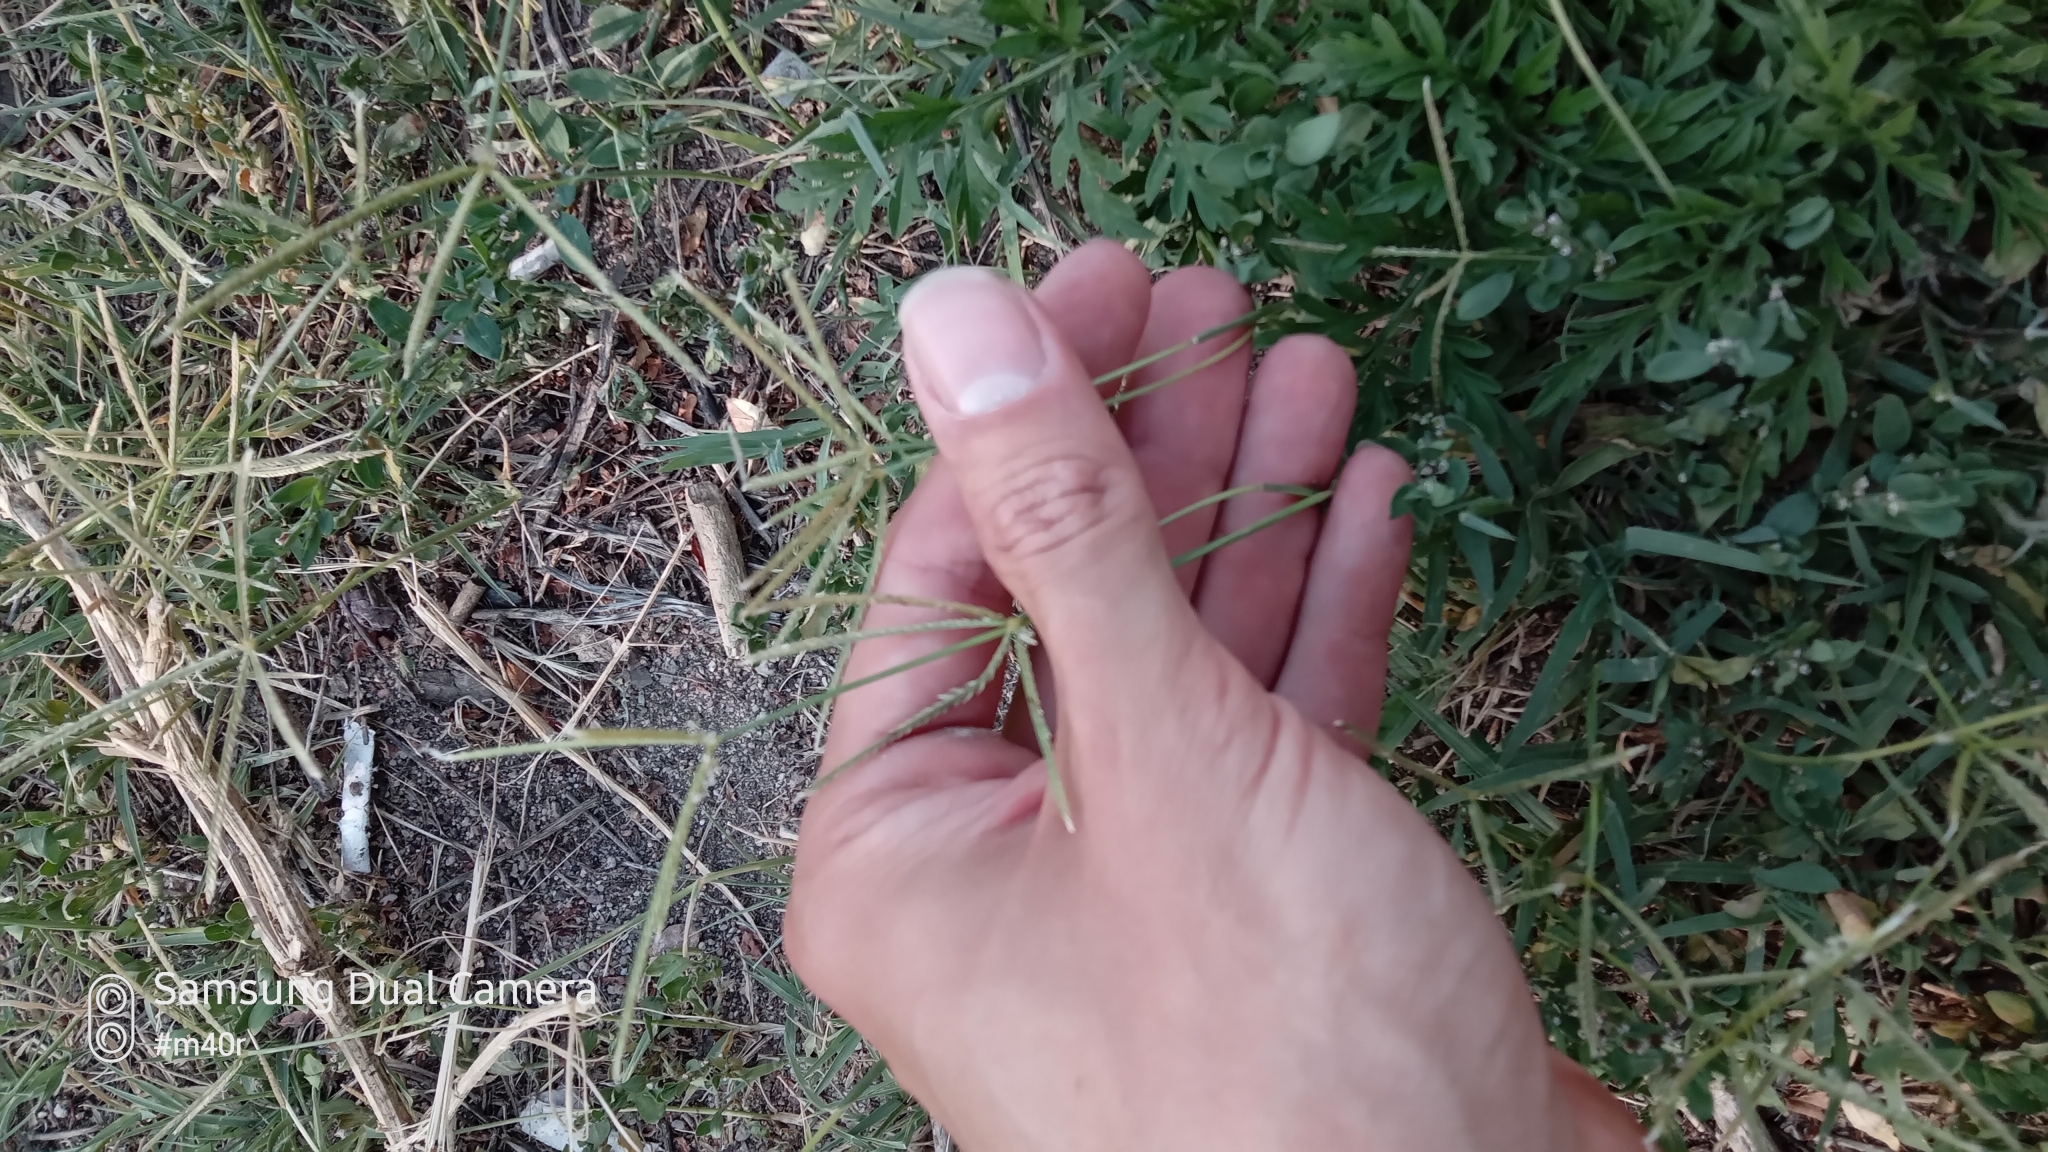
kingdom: Plantae
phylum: Tracheophyta
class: Liliopsida
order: Poales
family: Poaceae
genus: Cynodon
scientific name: Cynodon dactylon
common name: Bermuda grass
